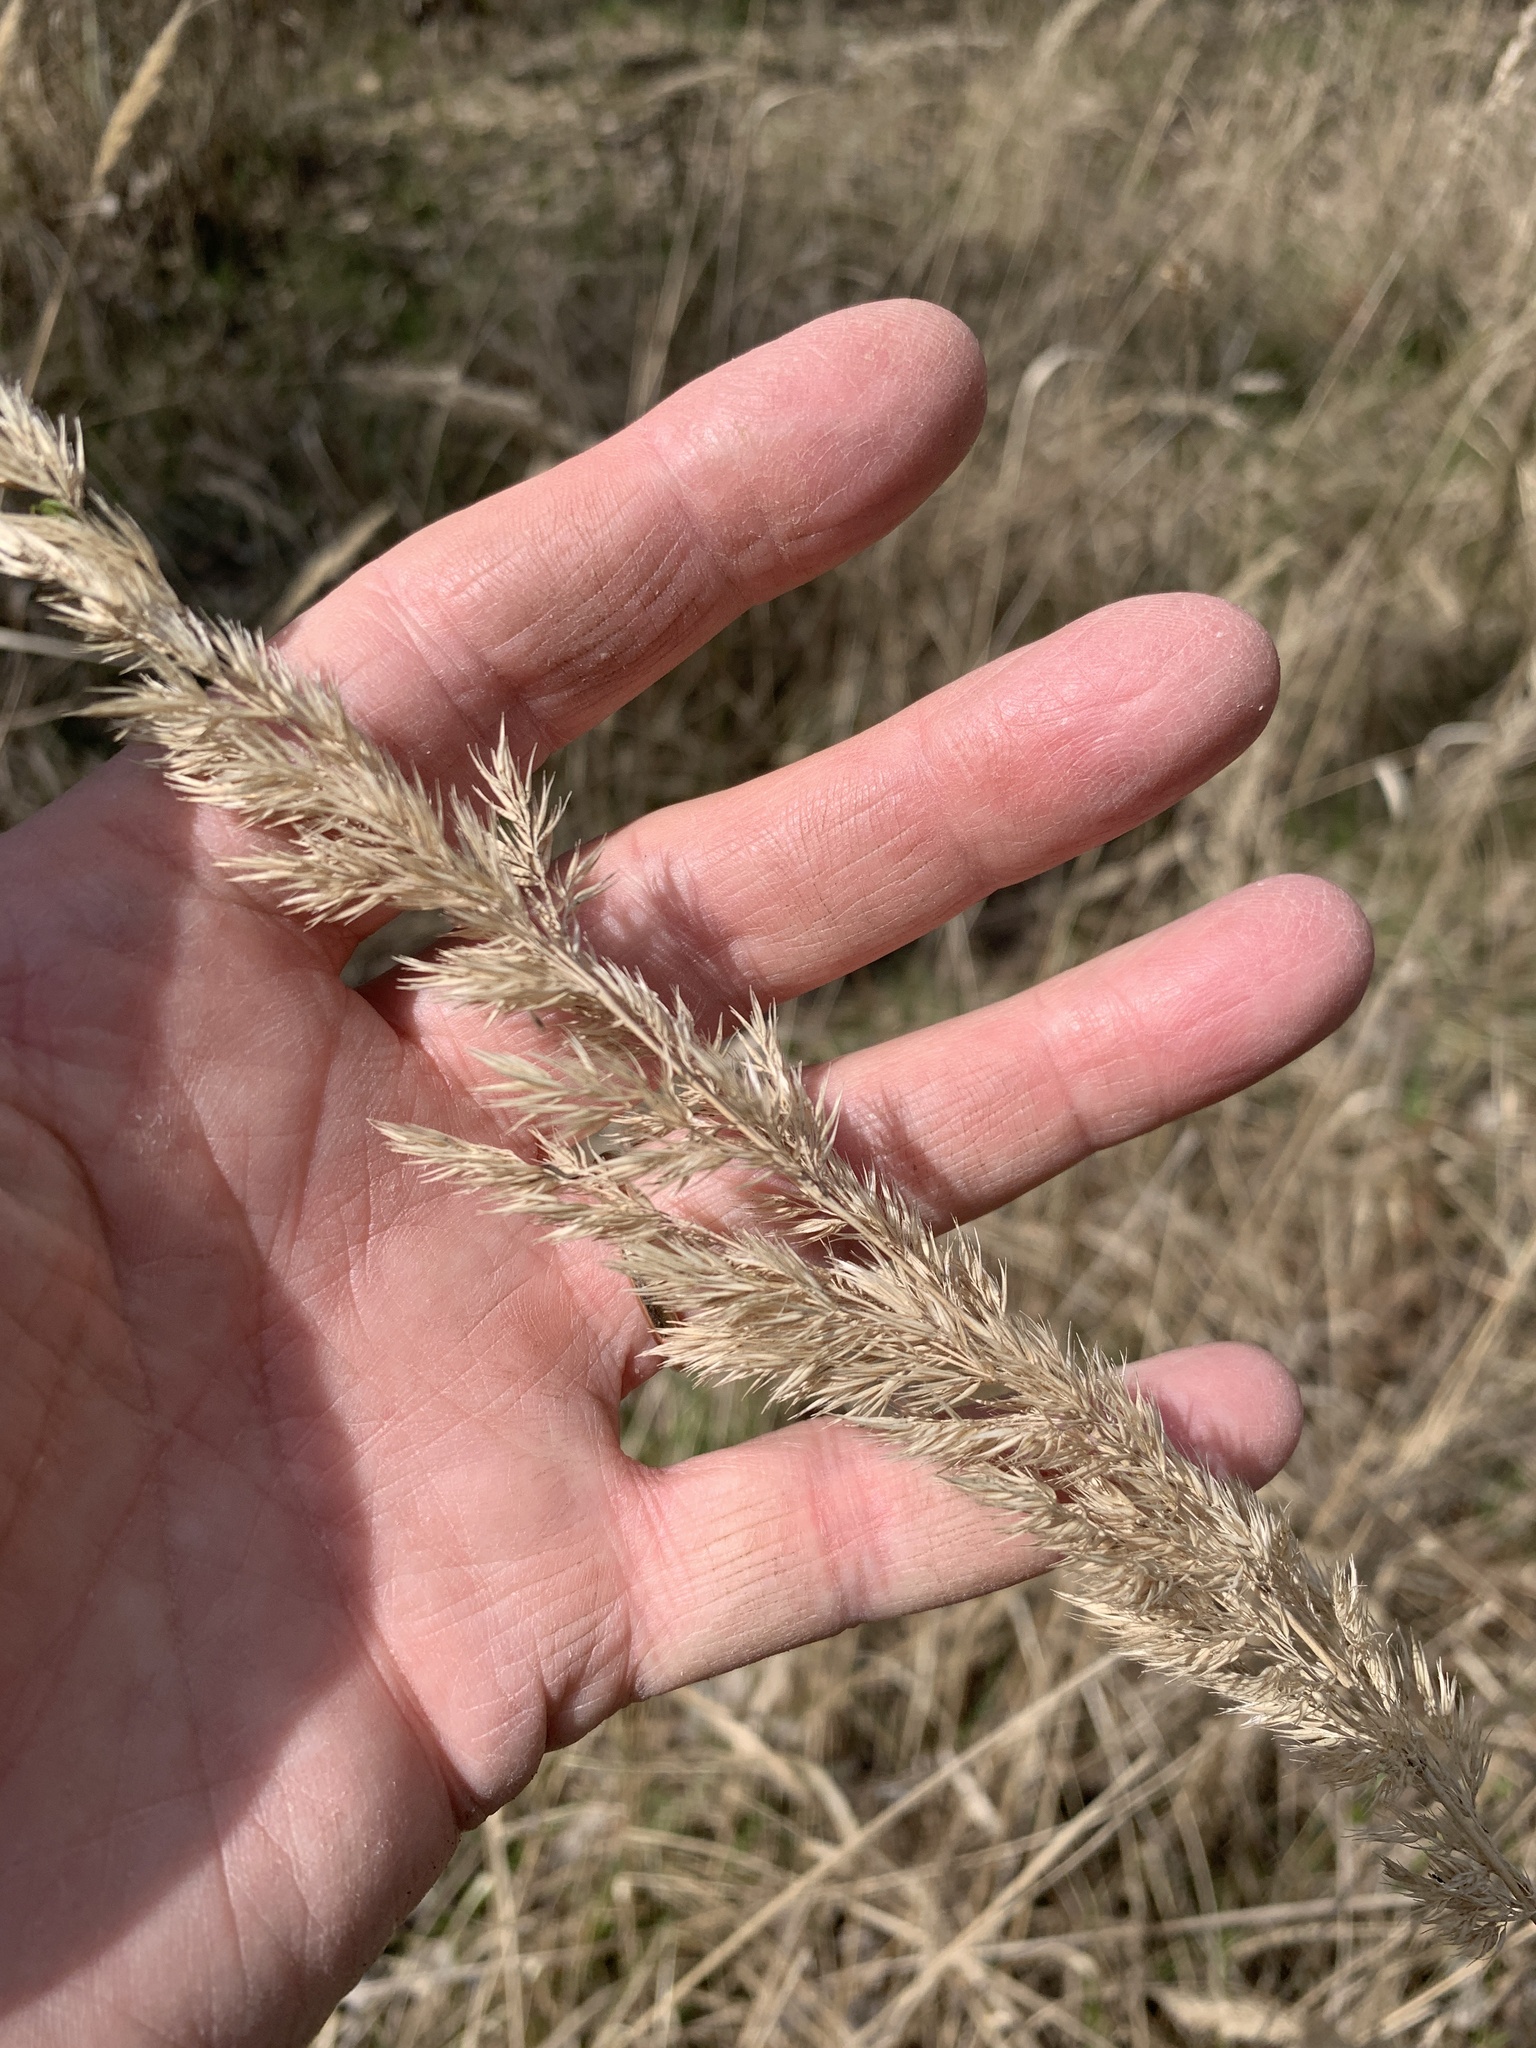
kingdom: Plantae
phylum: Tracheophyta
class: Liliopsida
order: Poales
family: Poaceae
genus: Calamagrostis
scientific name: Calamagrostis epigejos
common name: Wood small-reed
